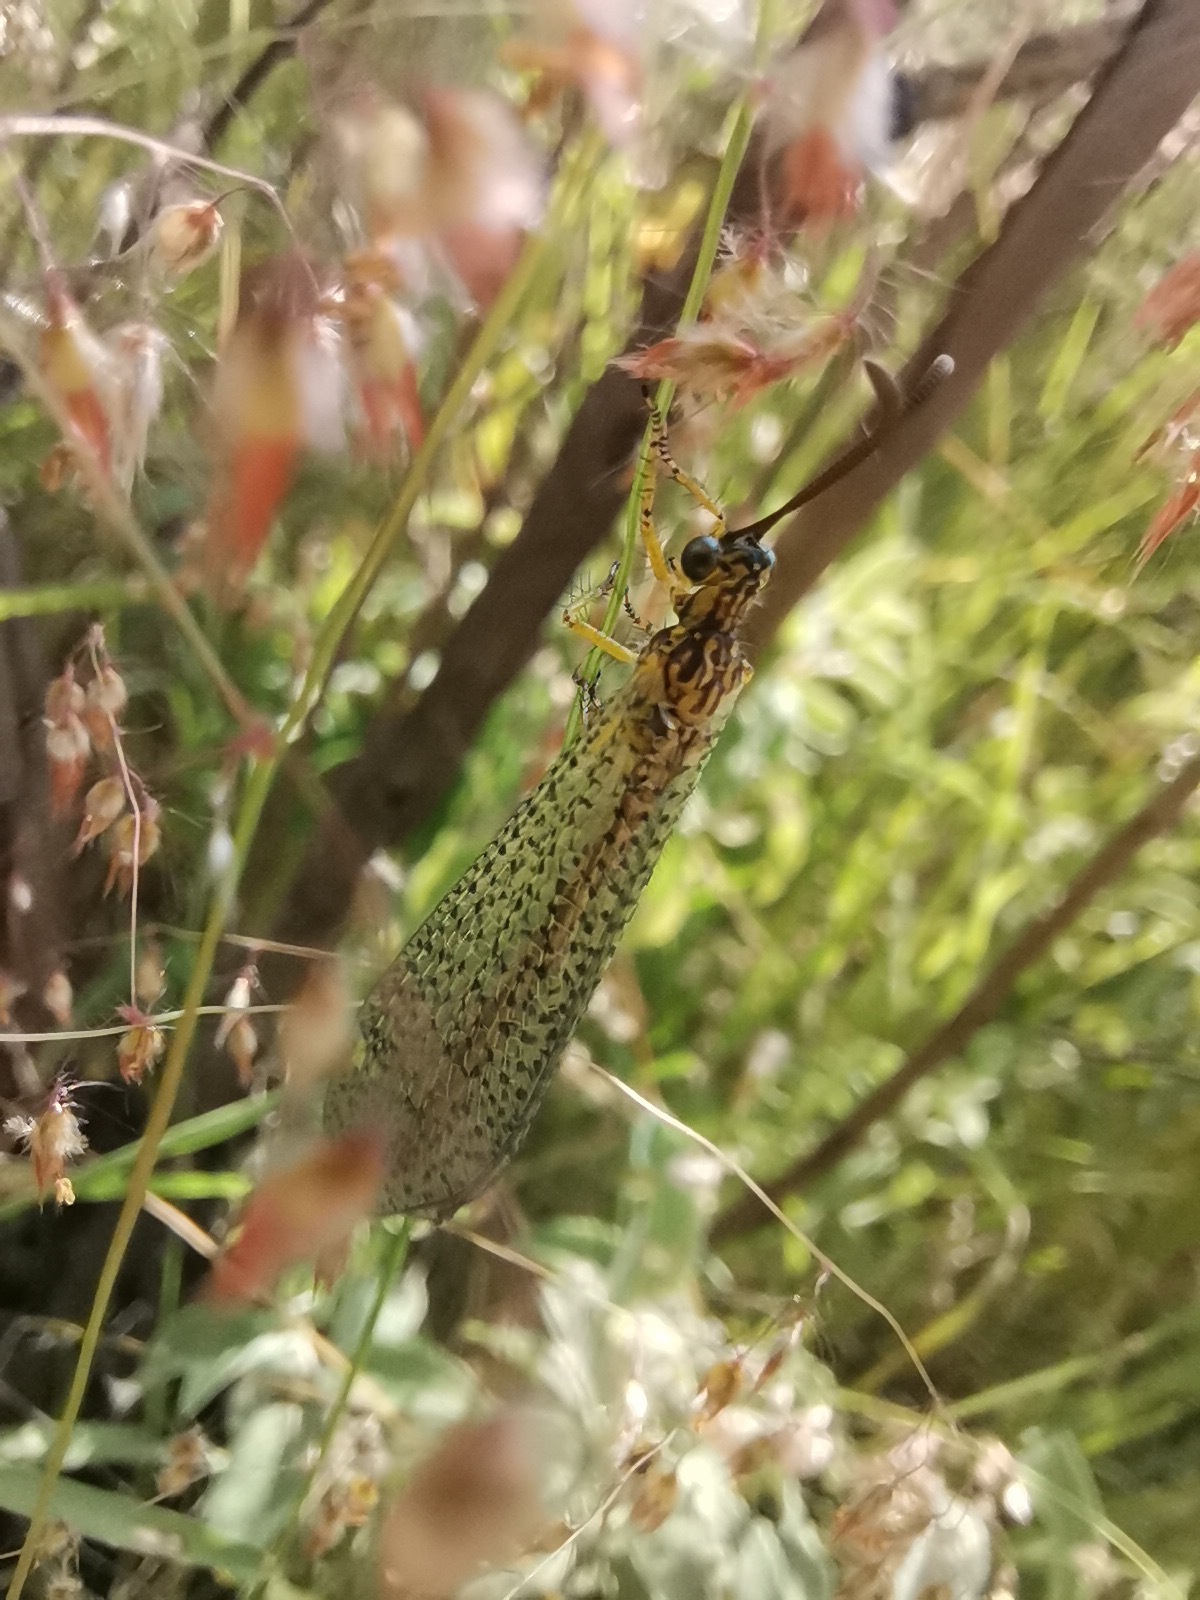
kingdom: Animalia
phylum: Arthropoda
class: Insecta
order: Neuroptera
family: Myrmeleontidae
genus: Brachynemurus
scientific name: Brachynemurus versutus
